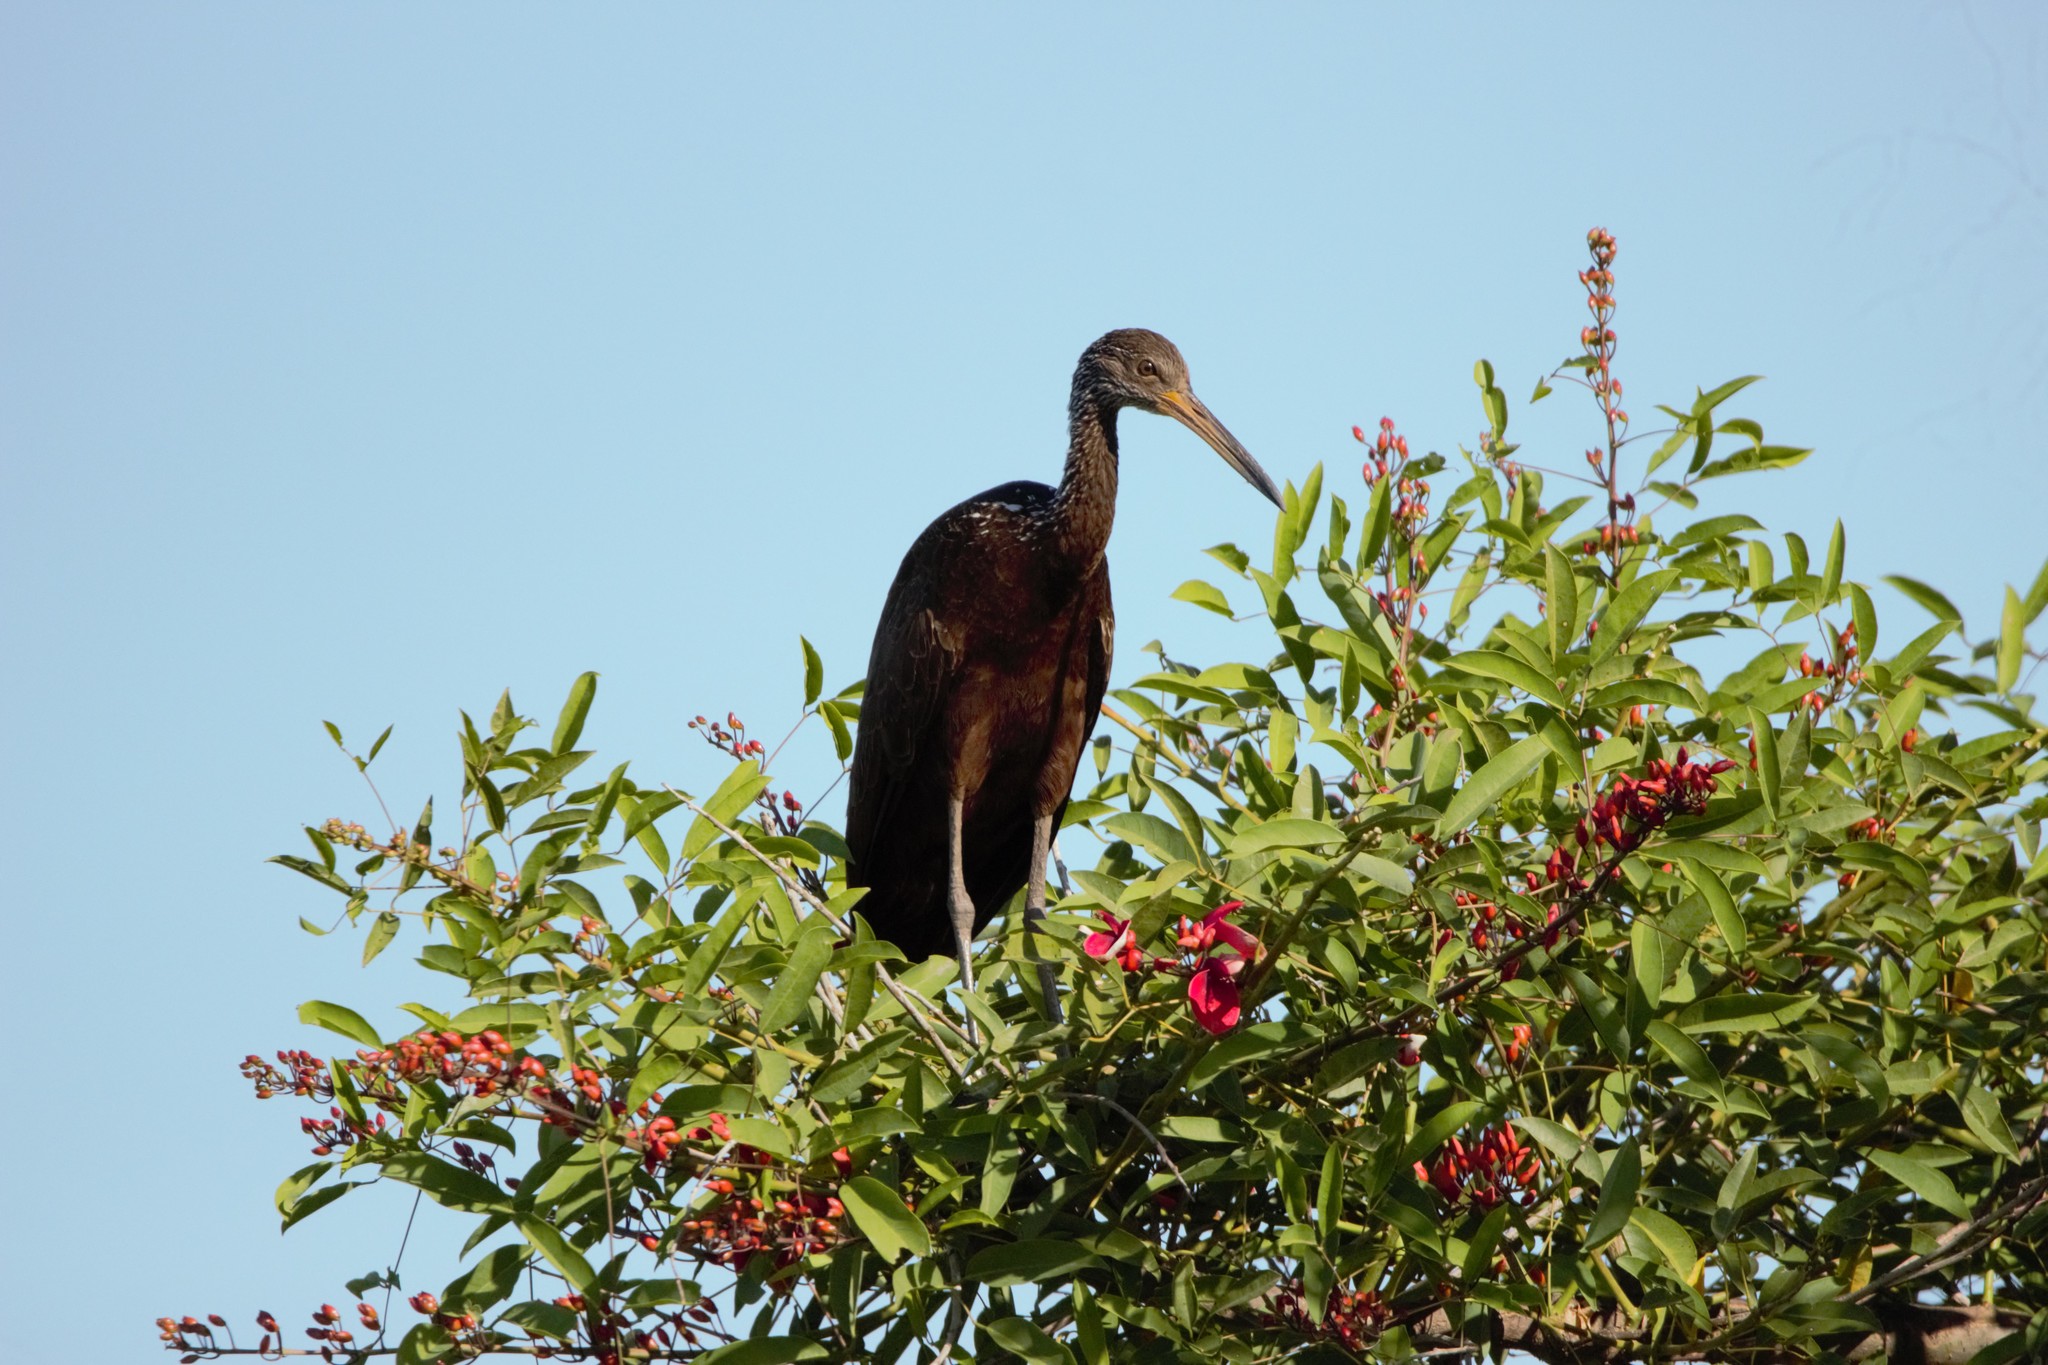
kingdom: Animalia
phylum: Chordata
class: Aves
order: Gruiformes
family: Aramidae
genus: Aramus
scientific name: Aramus guarauna
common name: Limpkin
